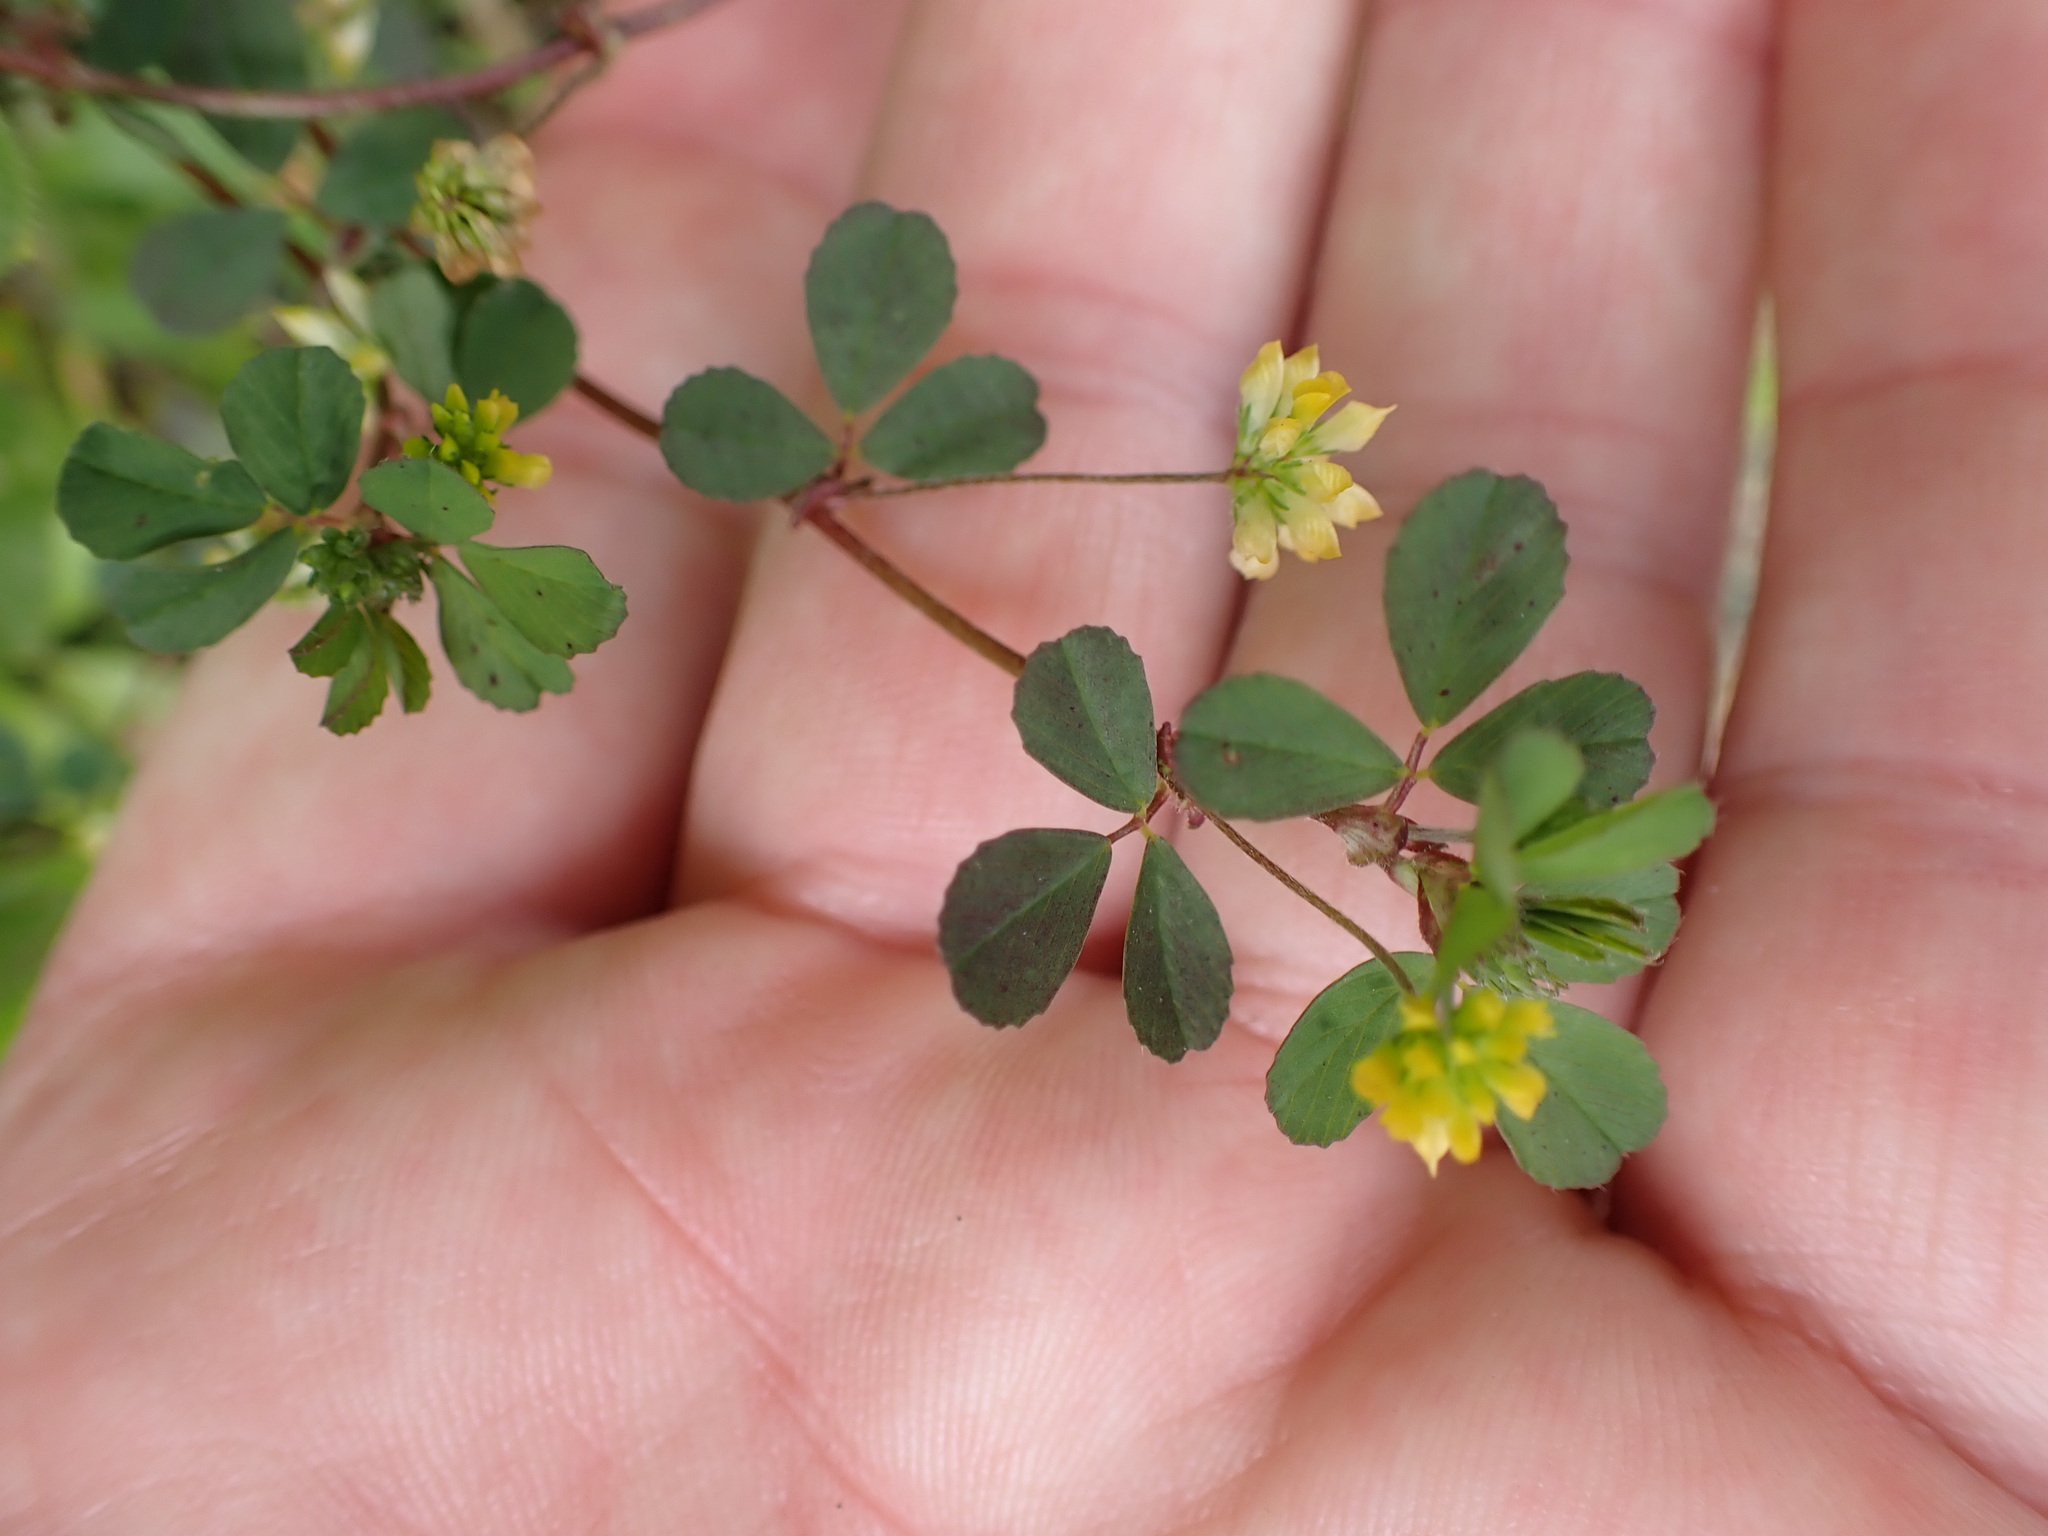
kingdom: Plantae
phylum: Tracheophyta
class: Magnoliopsida
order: Fabales
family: Fabaceae
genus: Trifolium
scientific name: Trifolium dubium
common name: Suckling clover
